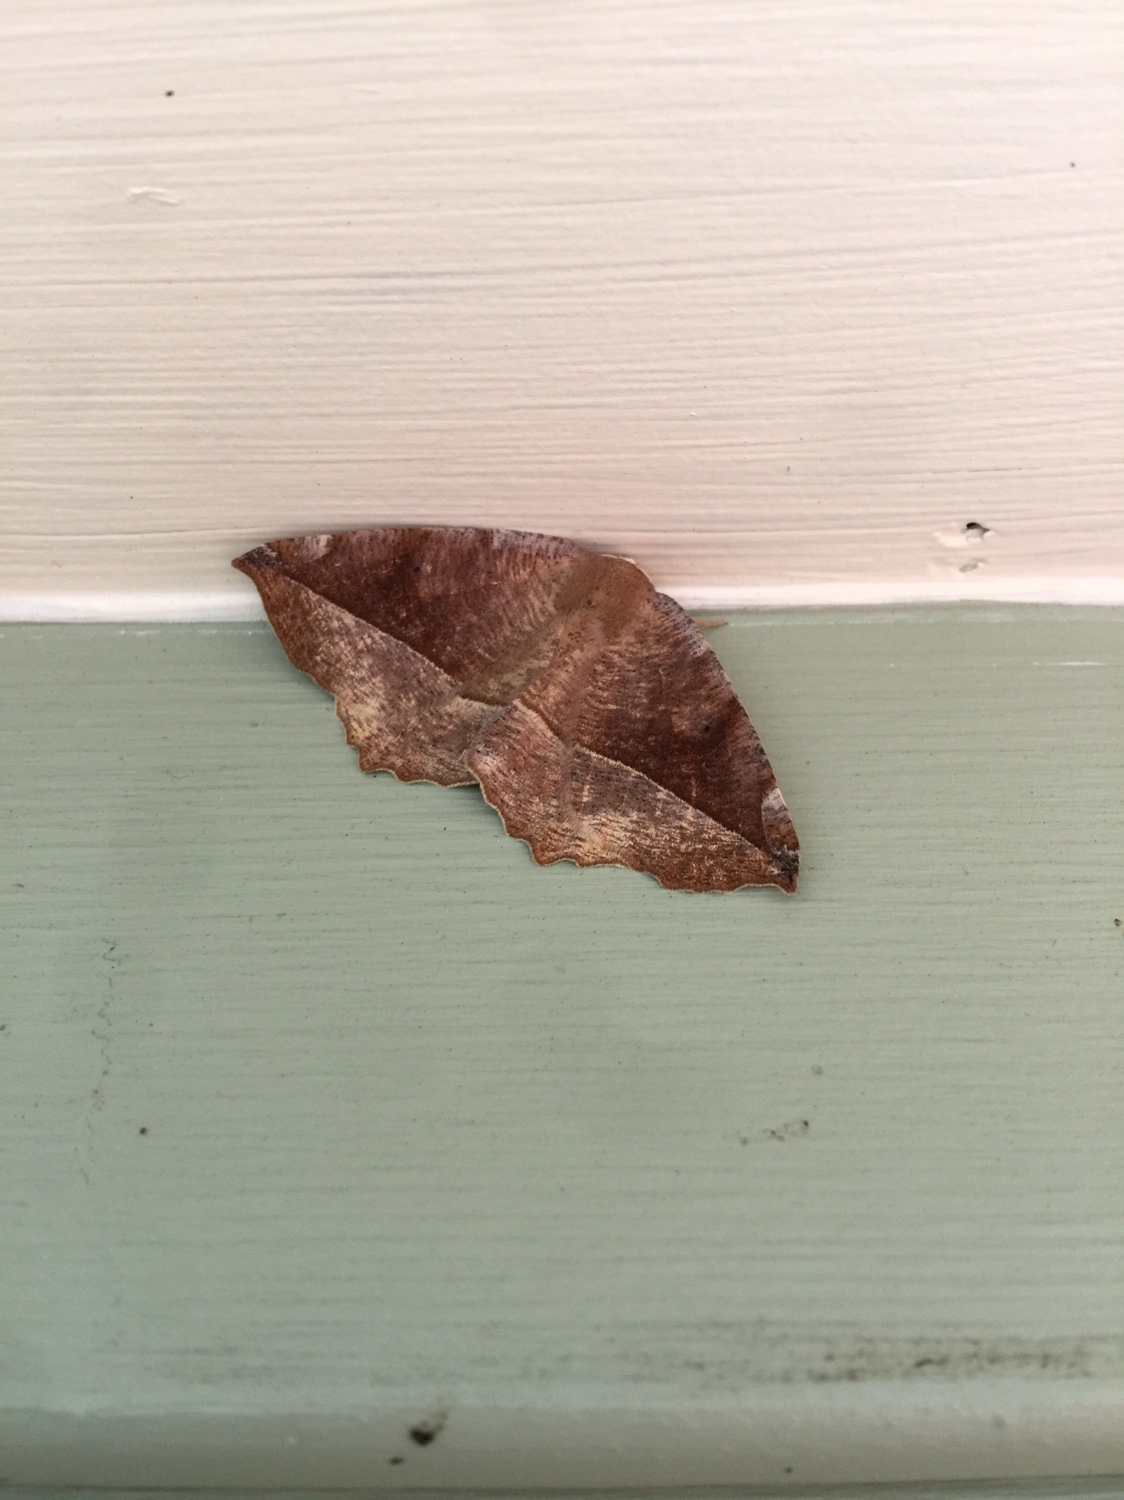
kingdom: Animalia
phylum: Arthropoda
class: Insecta
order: Lepidoptera
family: Geometridae
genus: Eutrapela
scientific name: Eutrapela clemataria
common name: Curved-toothed geometer
